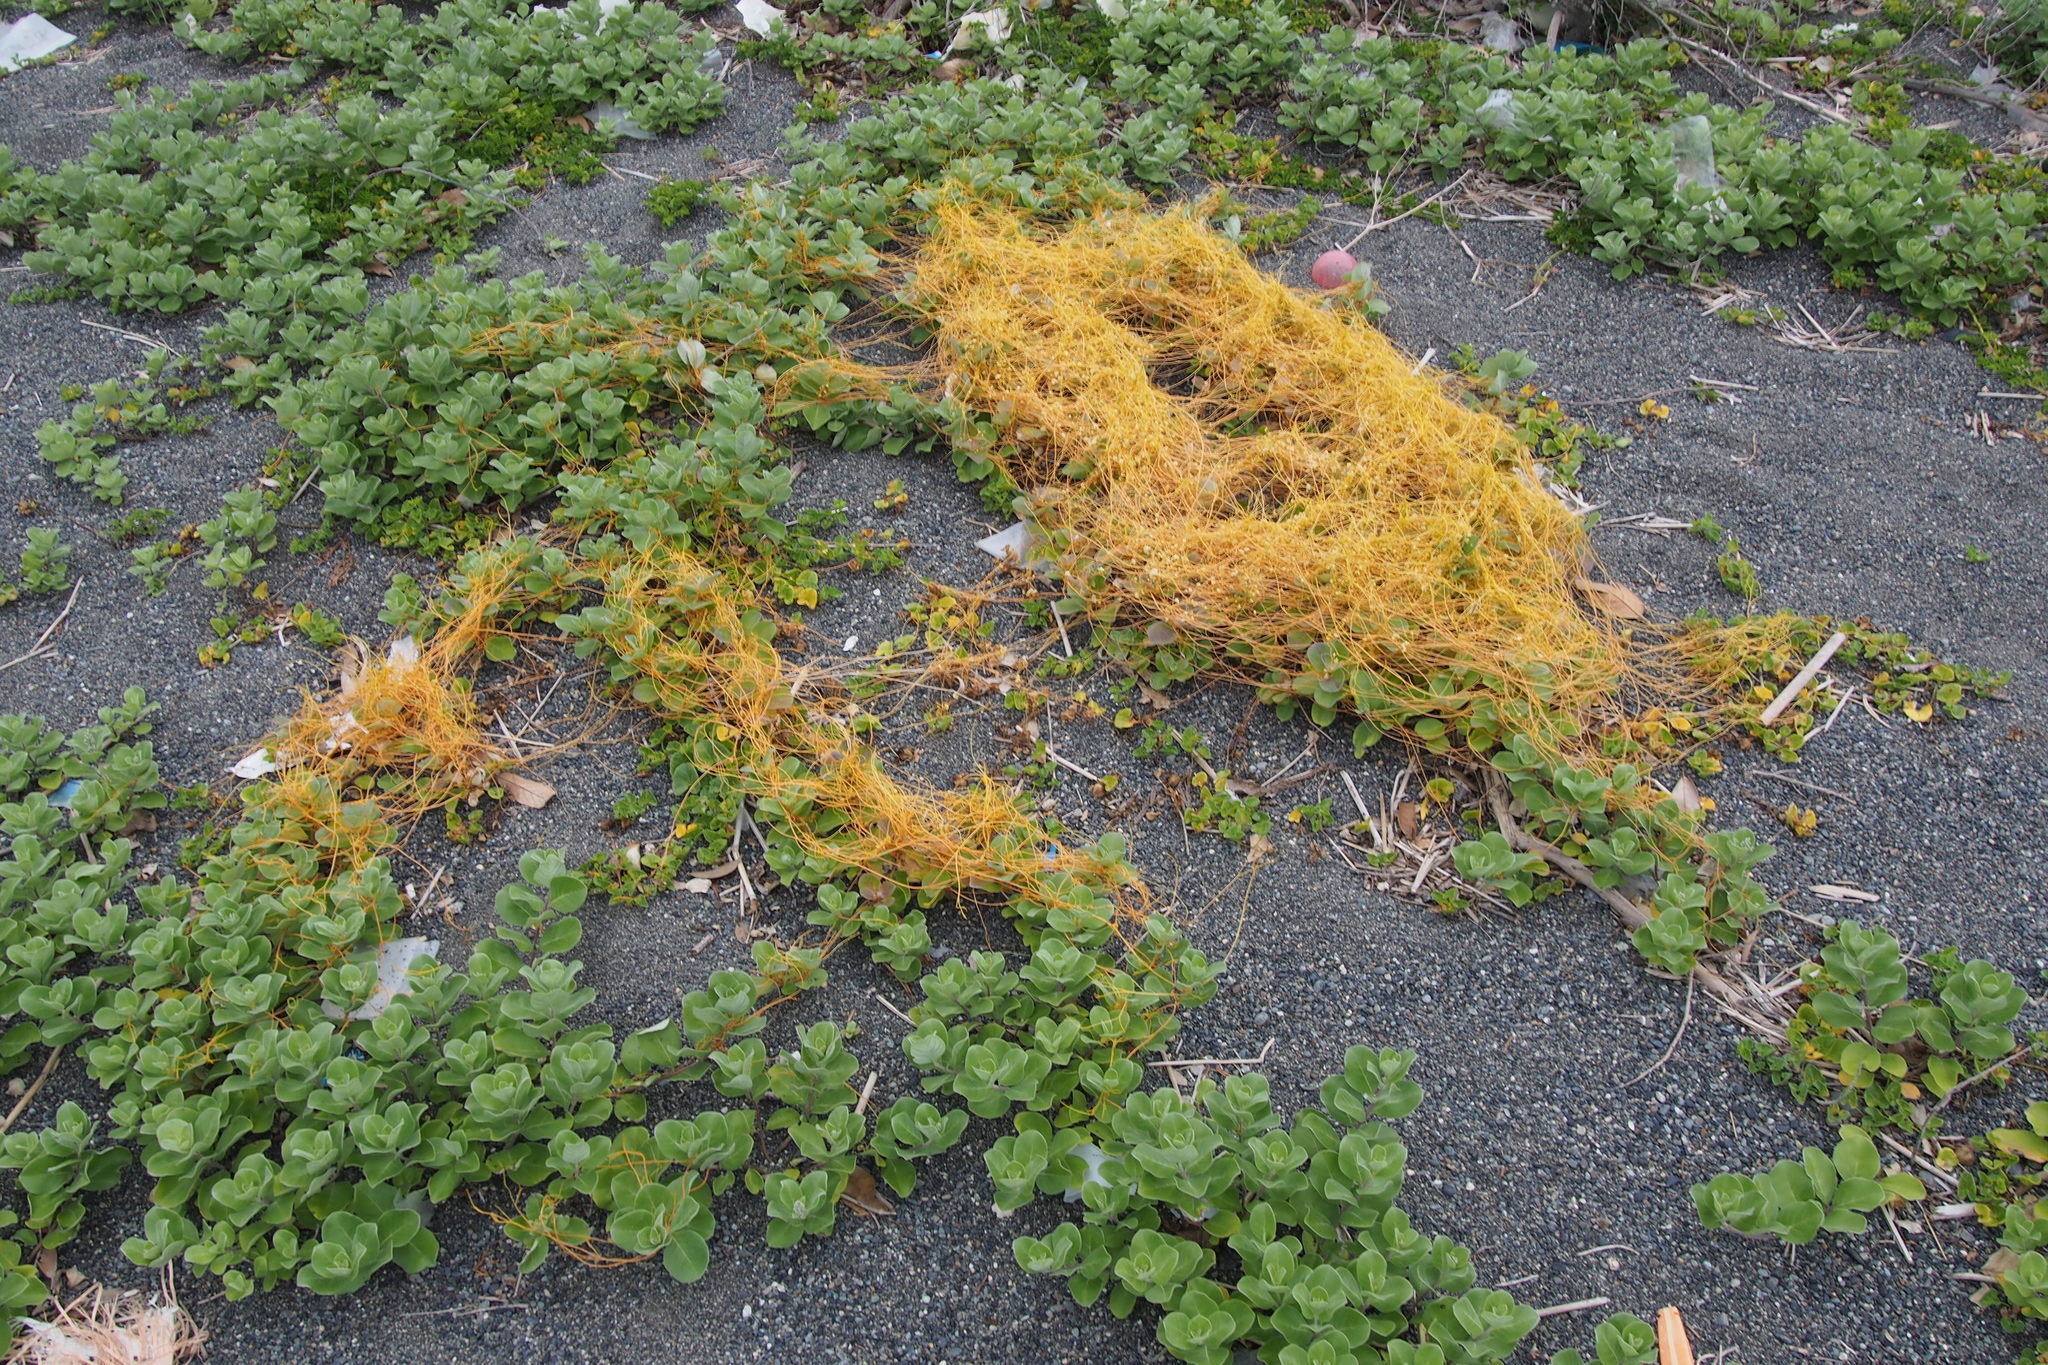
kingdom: Plantae
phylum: Tracheophyta
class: Magnoliopsida
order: Solanales
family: Convolvulaceae
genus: Cuscuta
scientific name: Cuscuta campestris
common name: Yellow dodder
